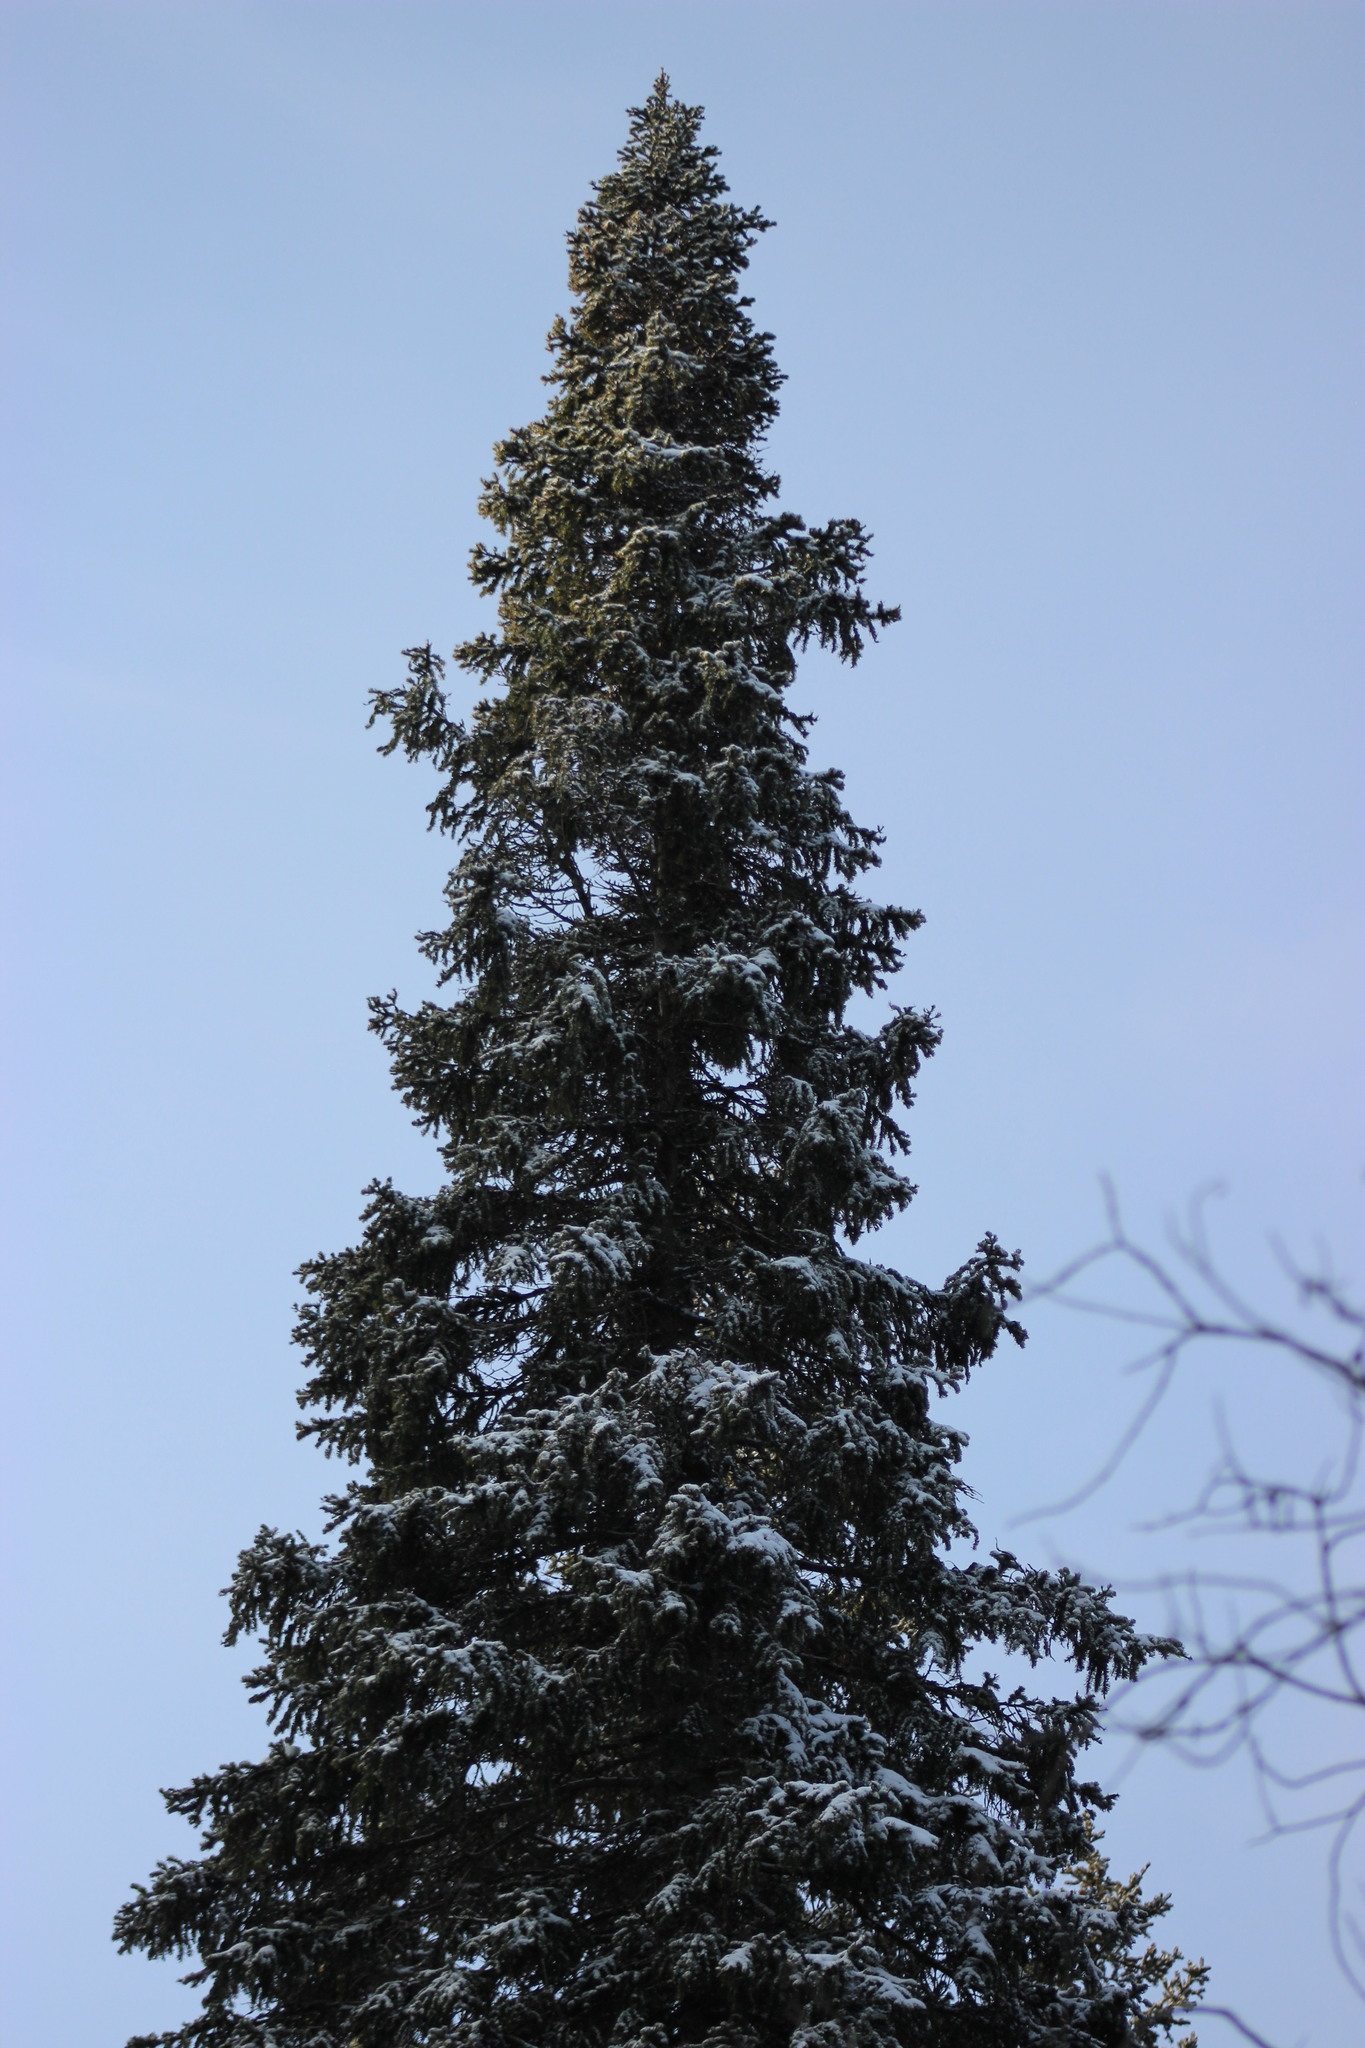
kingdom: Plantae
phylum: Tracheophyta
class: Pinopsida
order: Pinales
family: Pinaceae
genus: Picea
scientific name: Picea obovata
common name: Siberian spruce
